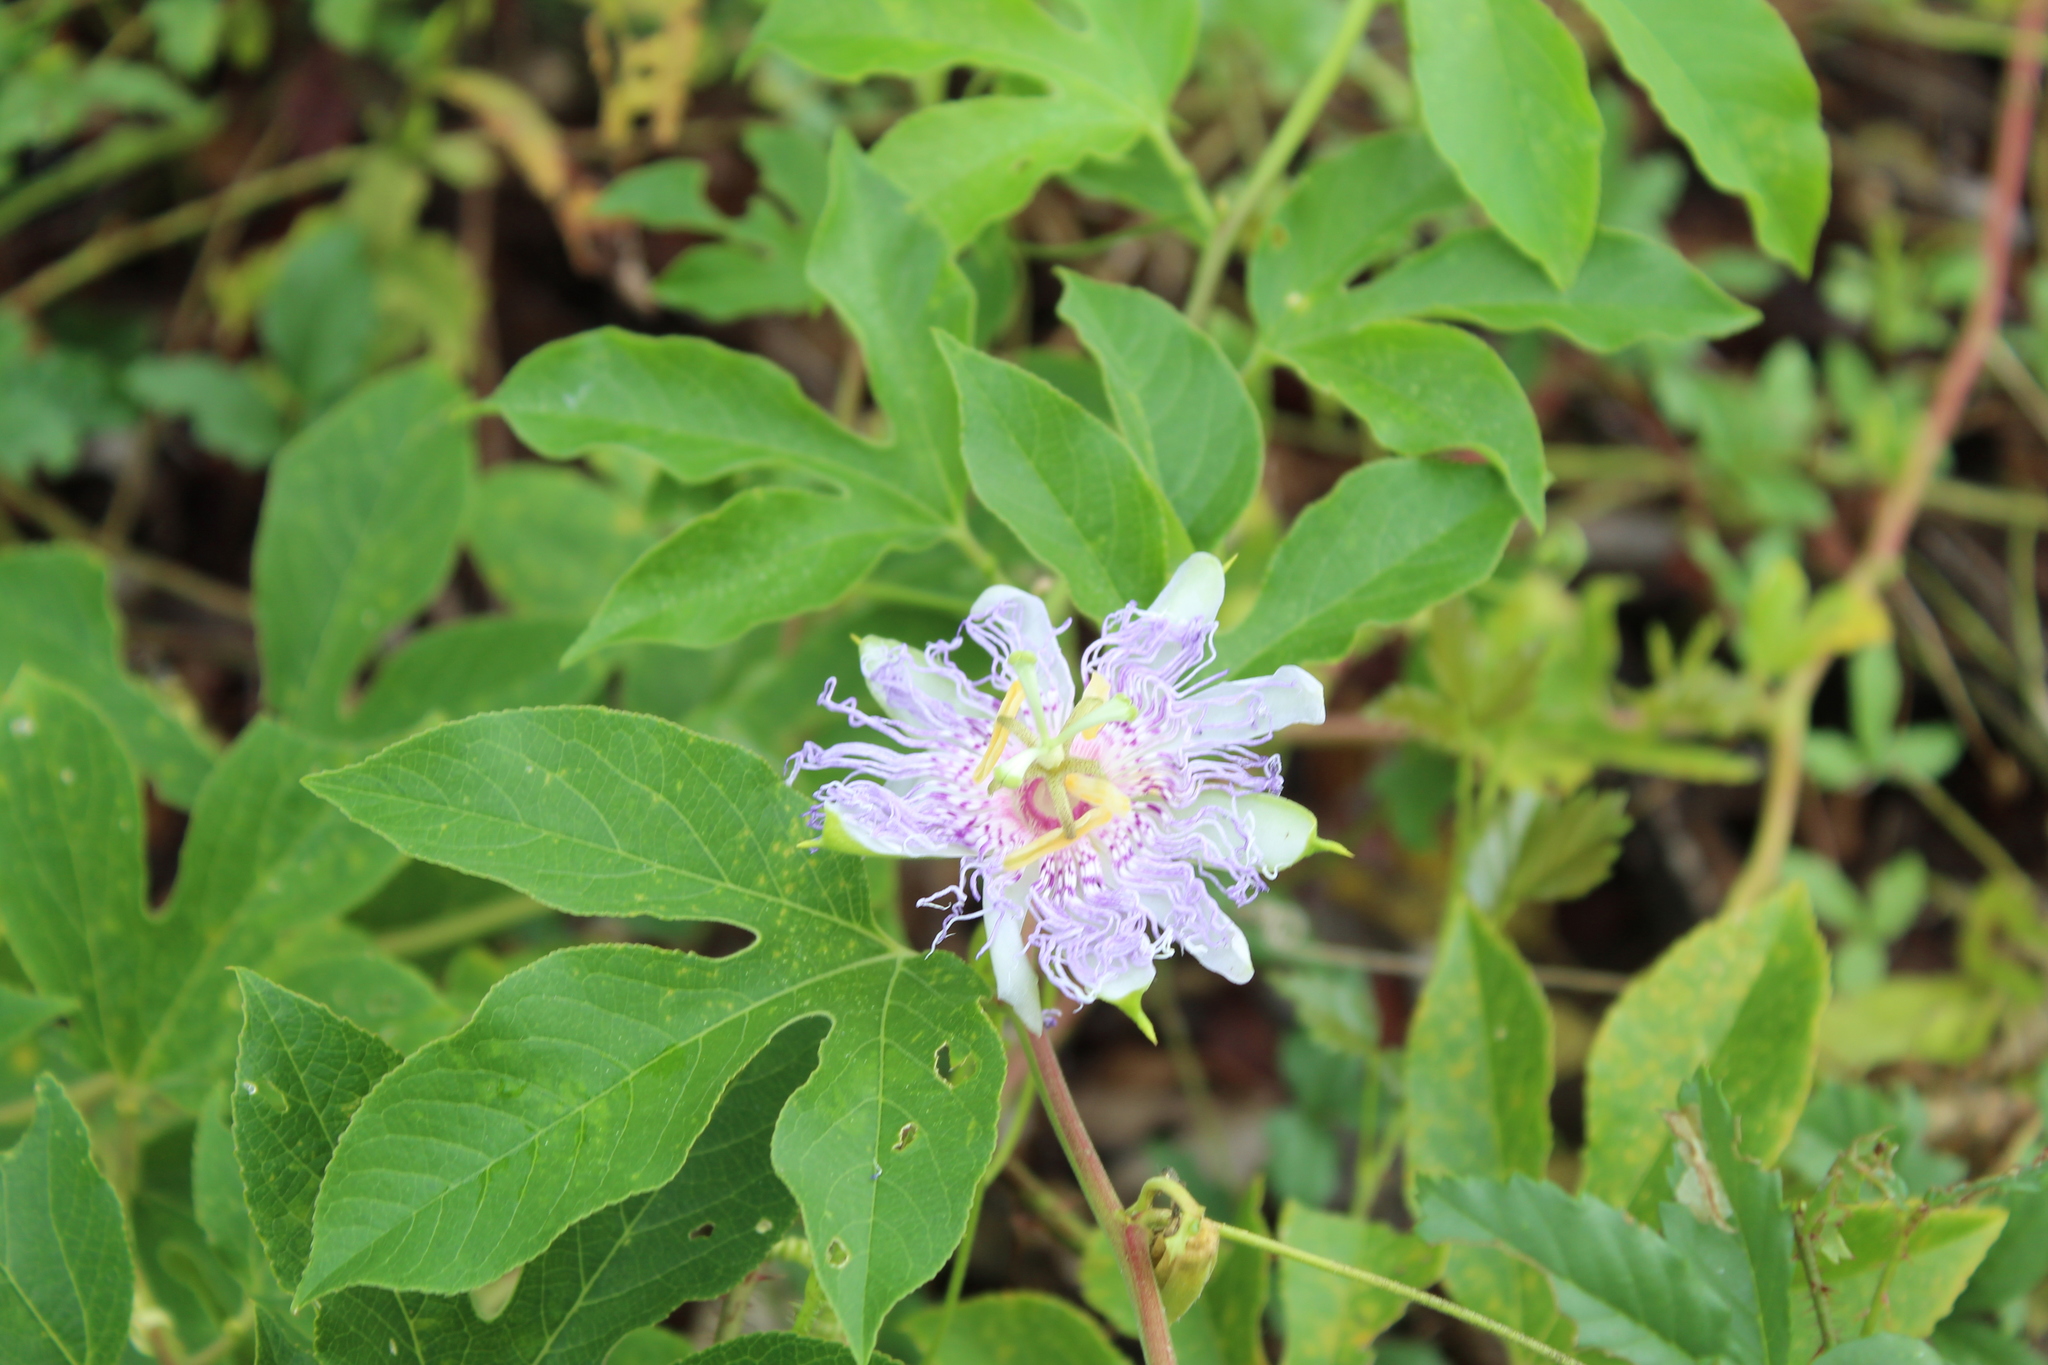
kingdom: Plantae
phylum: Tracheophyta
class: Magnoliopsida
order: Malpighiales
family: Passifloraceae
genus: Passiflora
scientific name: Passiflora incarnata
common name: Apricot-vine
